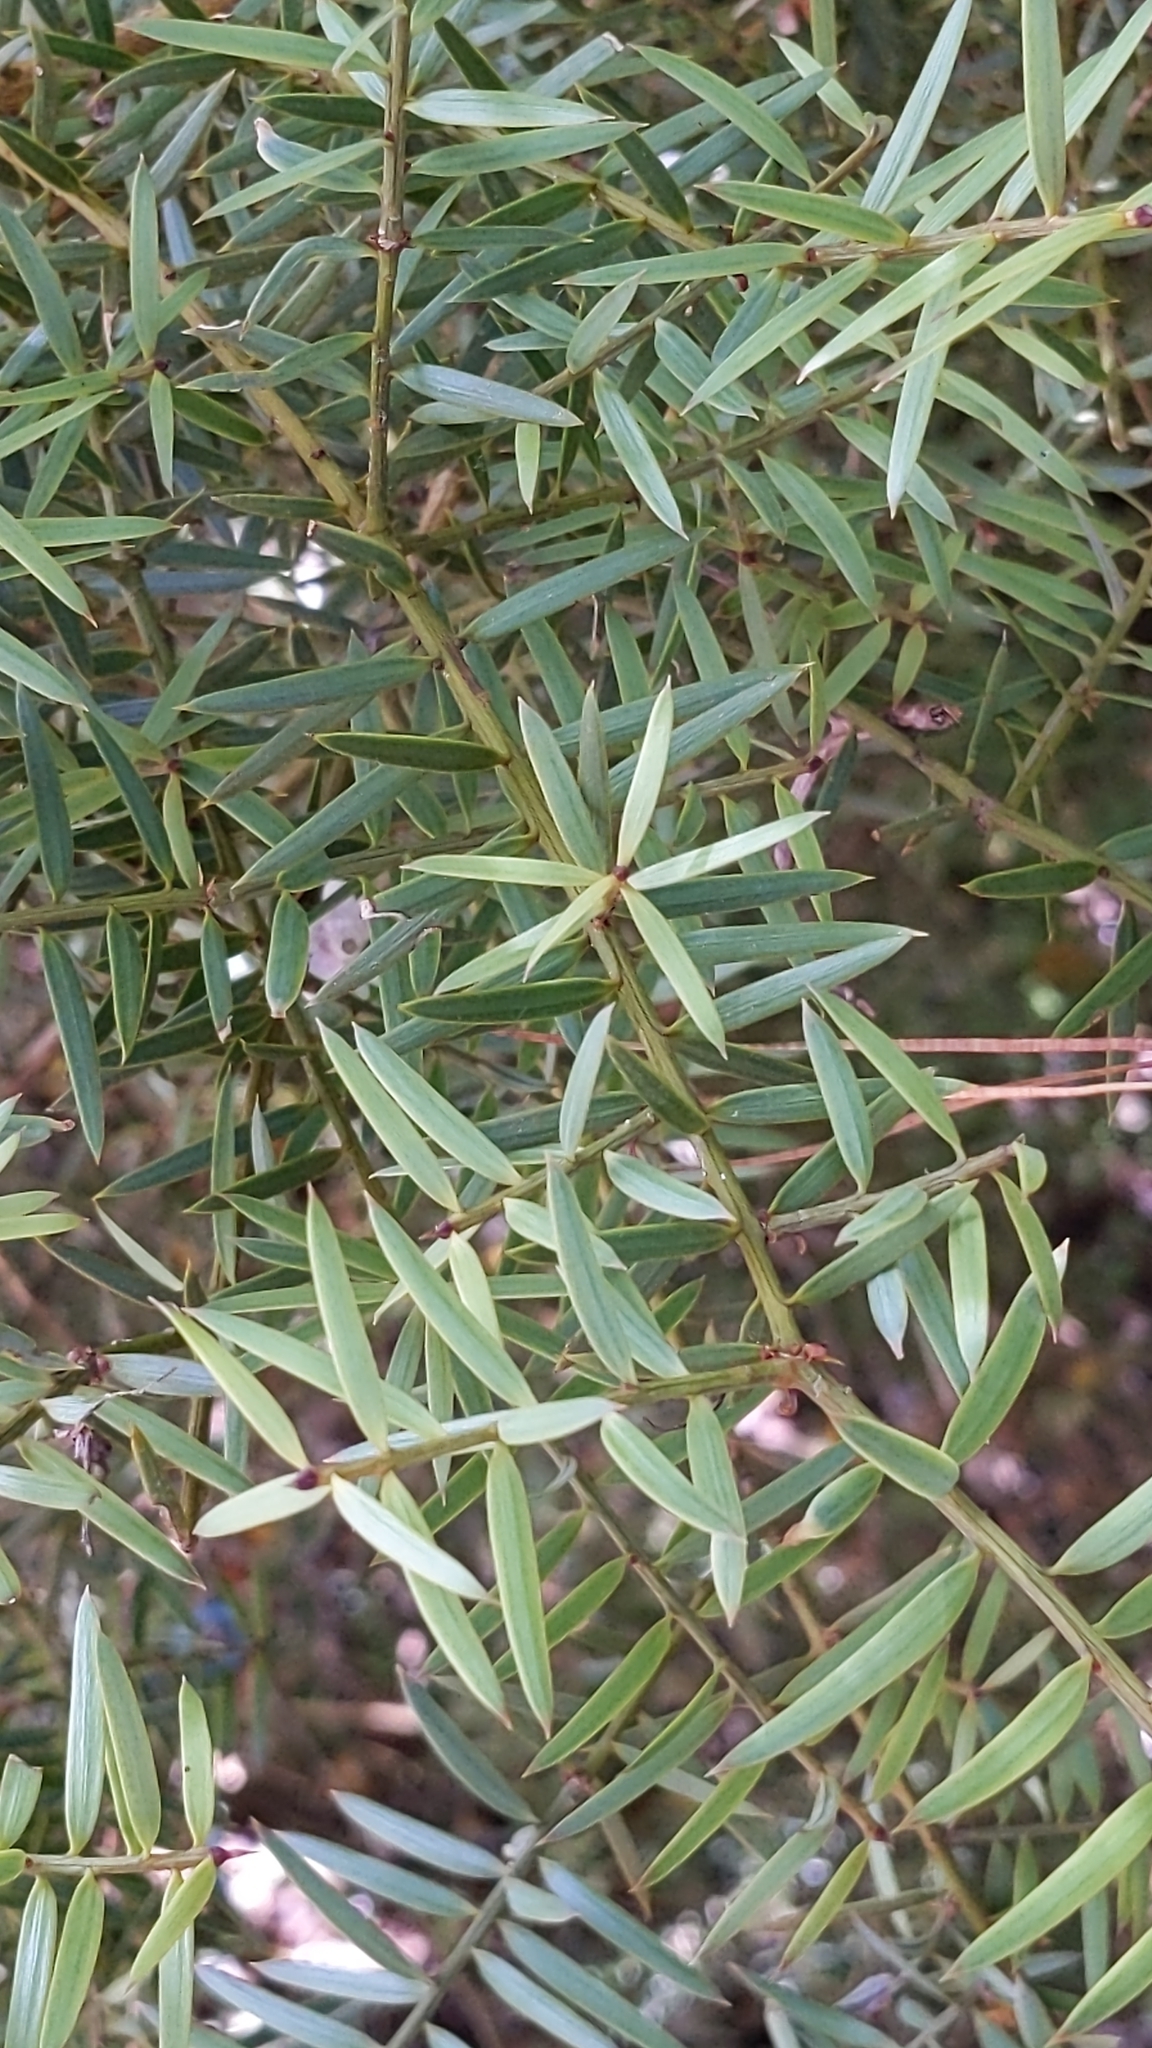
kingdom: Plantae
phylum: Tracheophyta
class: Pinopsida
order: Pinales
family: Podocarpaceae
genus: Podocarpus
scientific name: Podocarpus totara
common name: Totara
